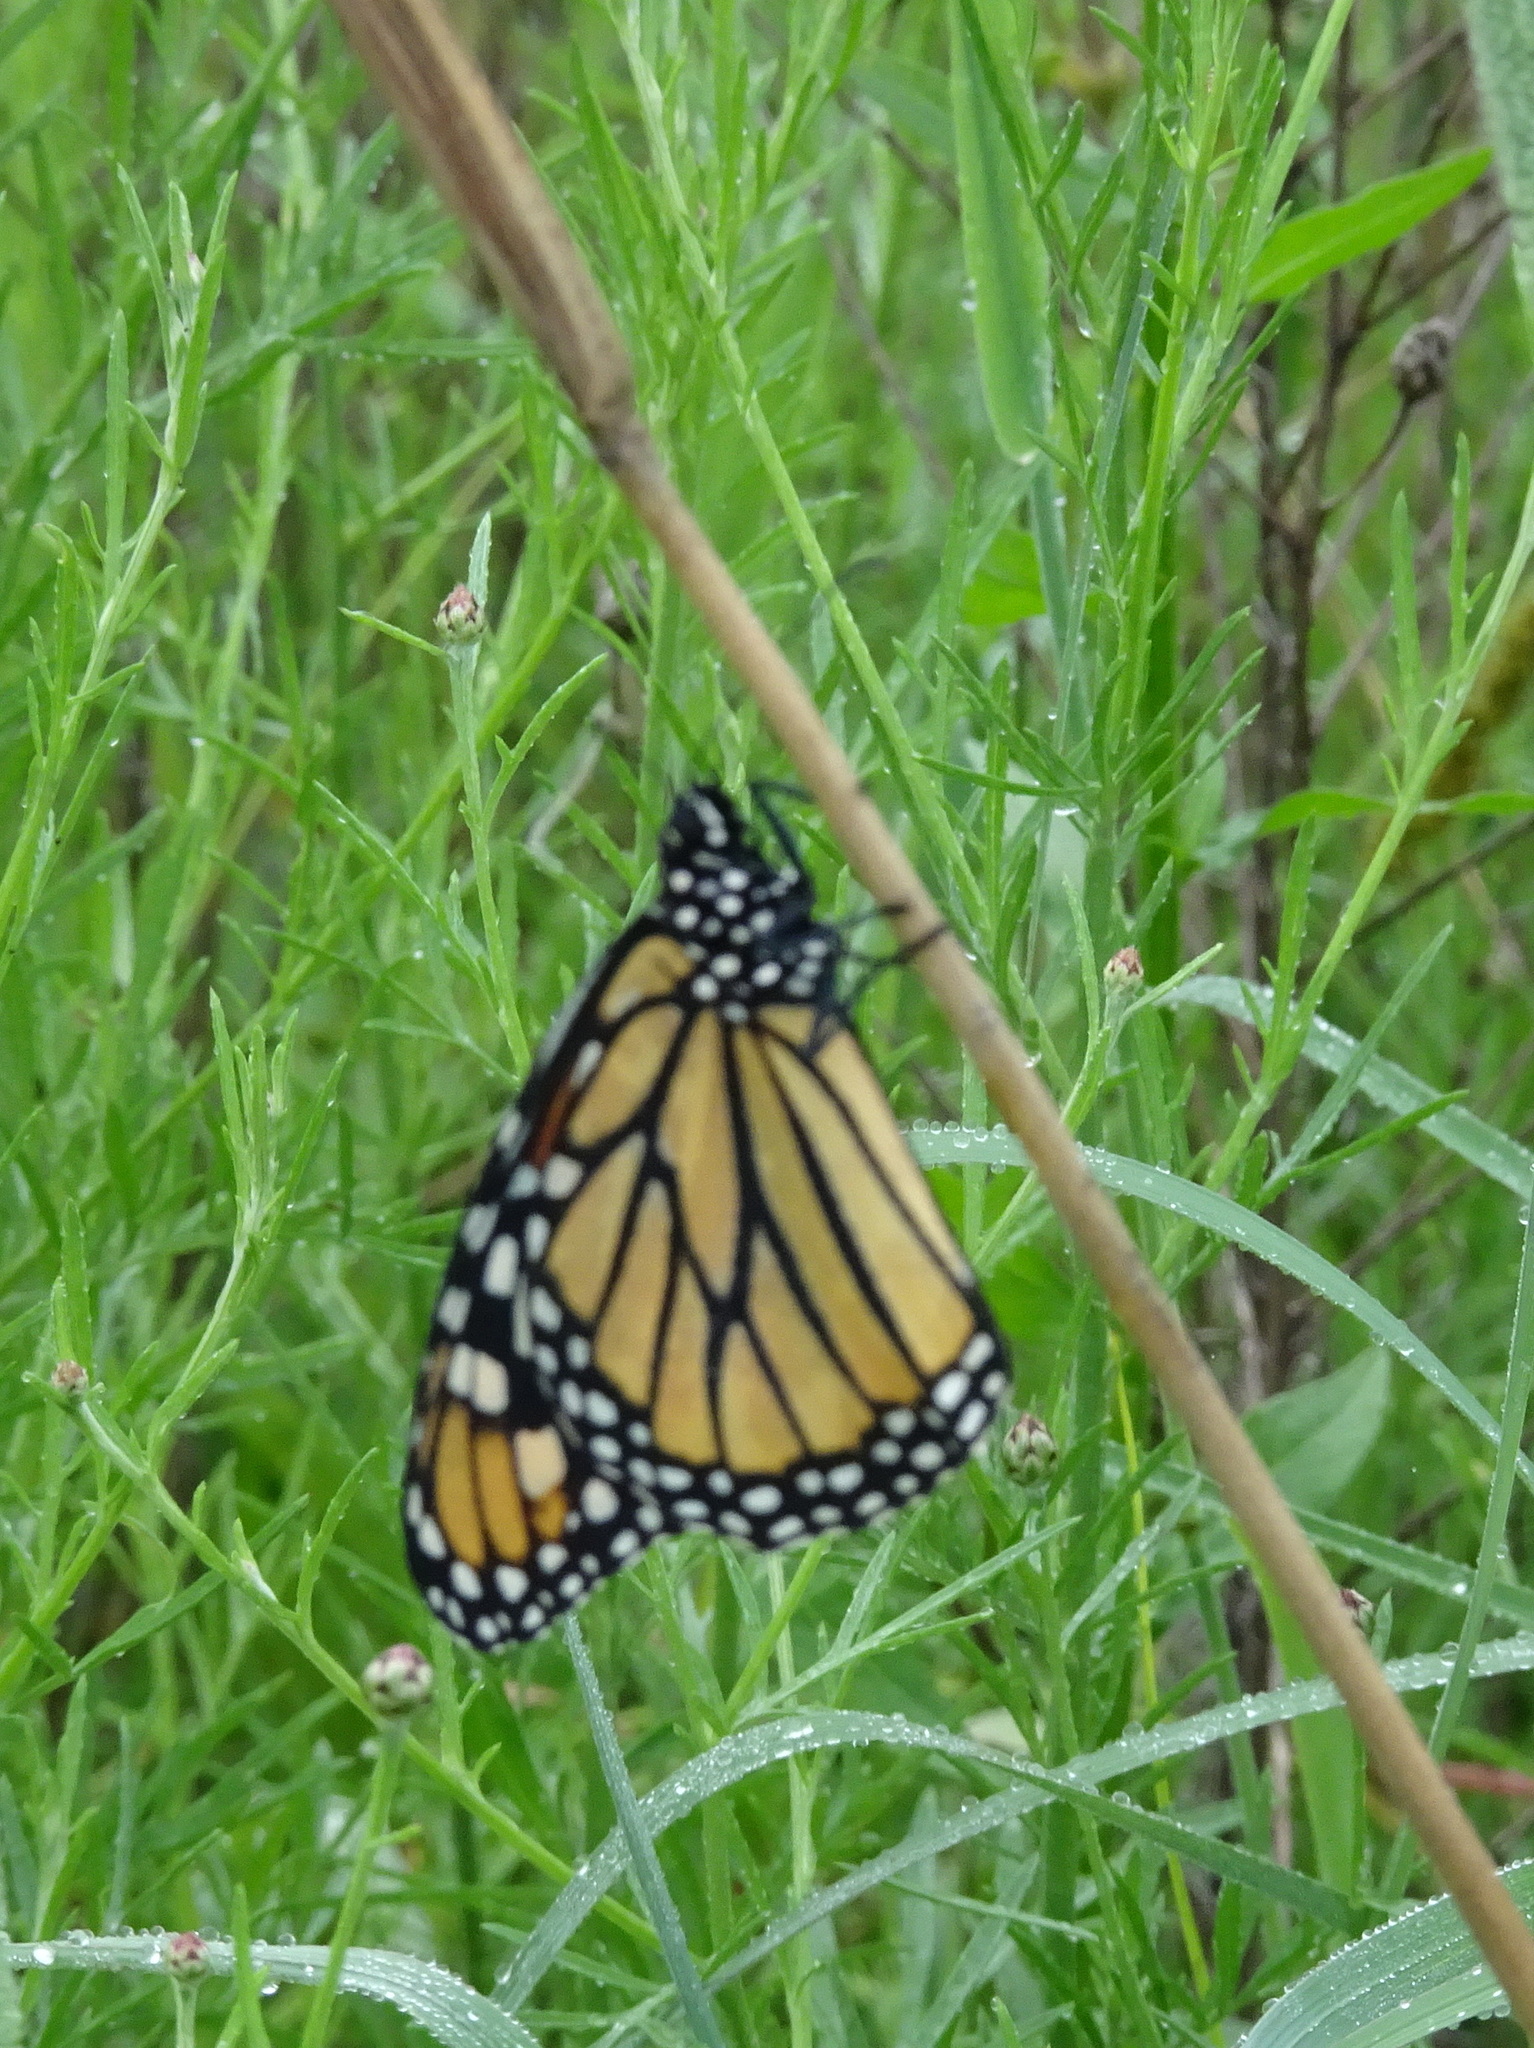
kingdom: Animalia
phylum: Arthropoda
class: Insecta
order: Lepidoptera
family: Nymphalidae
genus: Danaus
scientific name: Danaus plexippus
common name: Monarch
